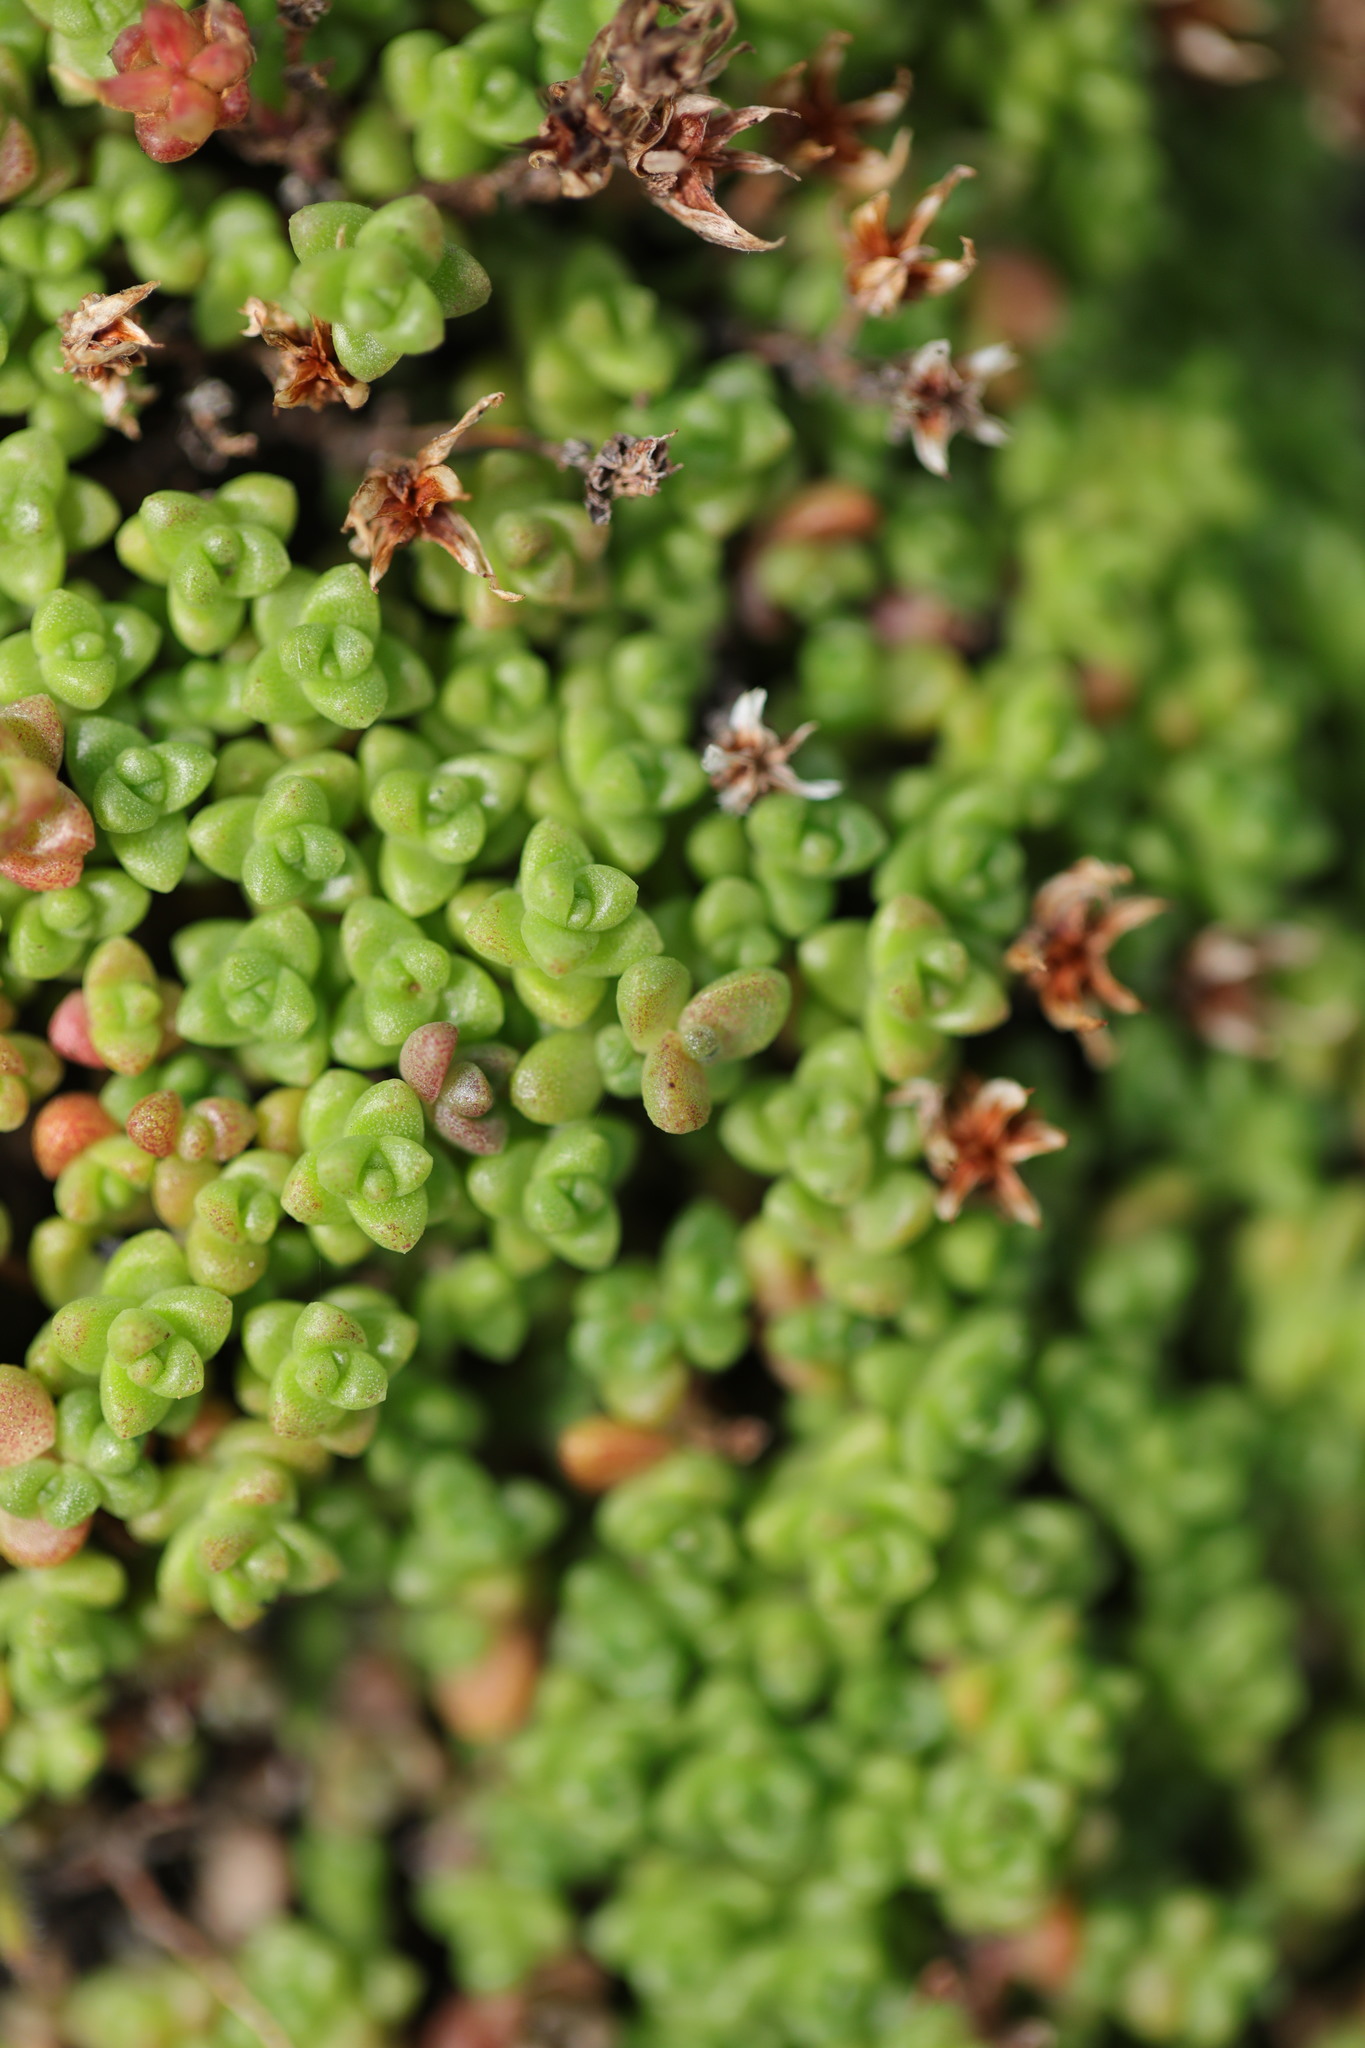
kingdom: Plantae
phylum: Tracheophyta
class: Magnoliopsida
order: Saxifragales
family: Crassulaceae
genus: Sedum
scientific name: Sedum anglicum
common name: English stonecrop
